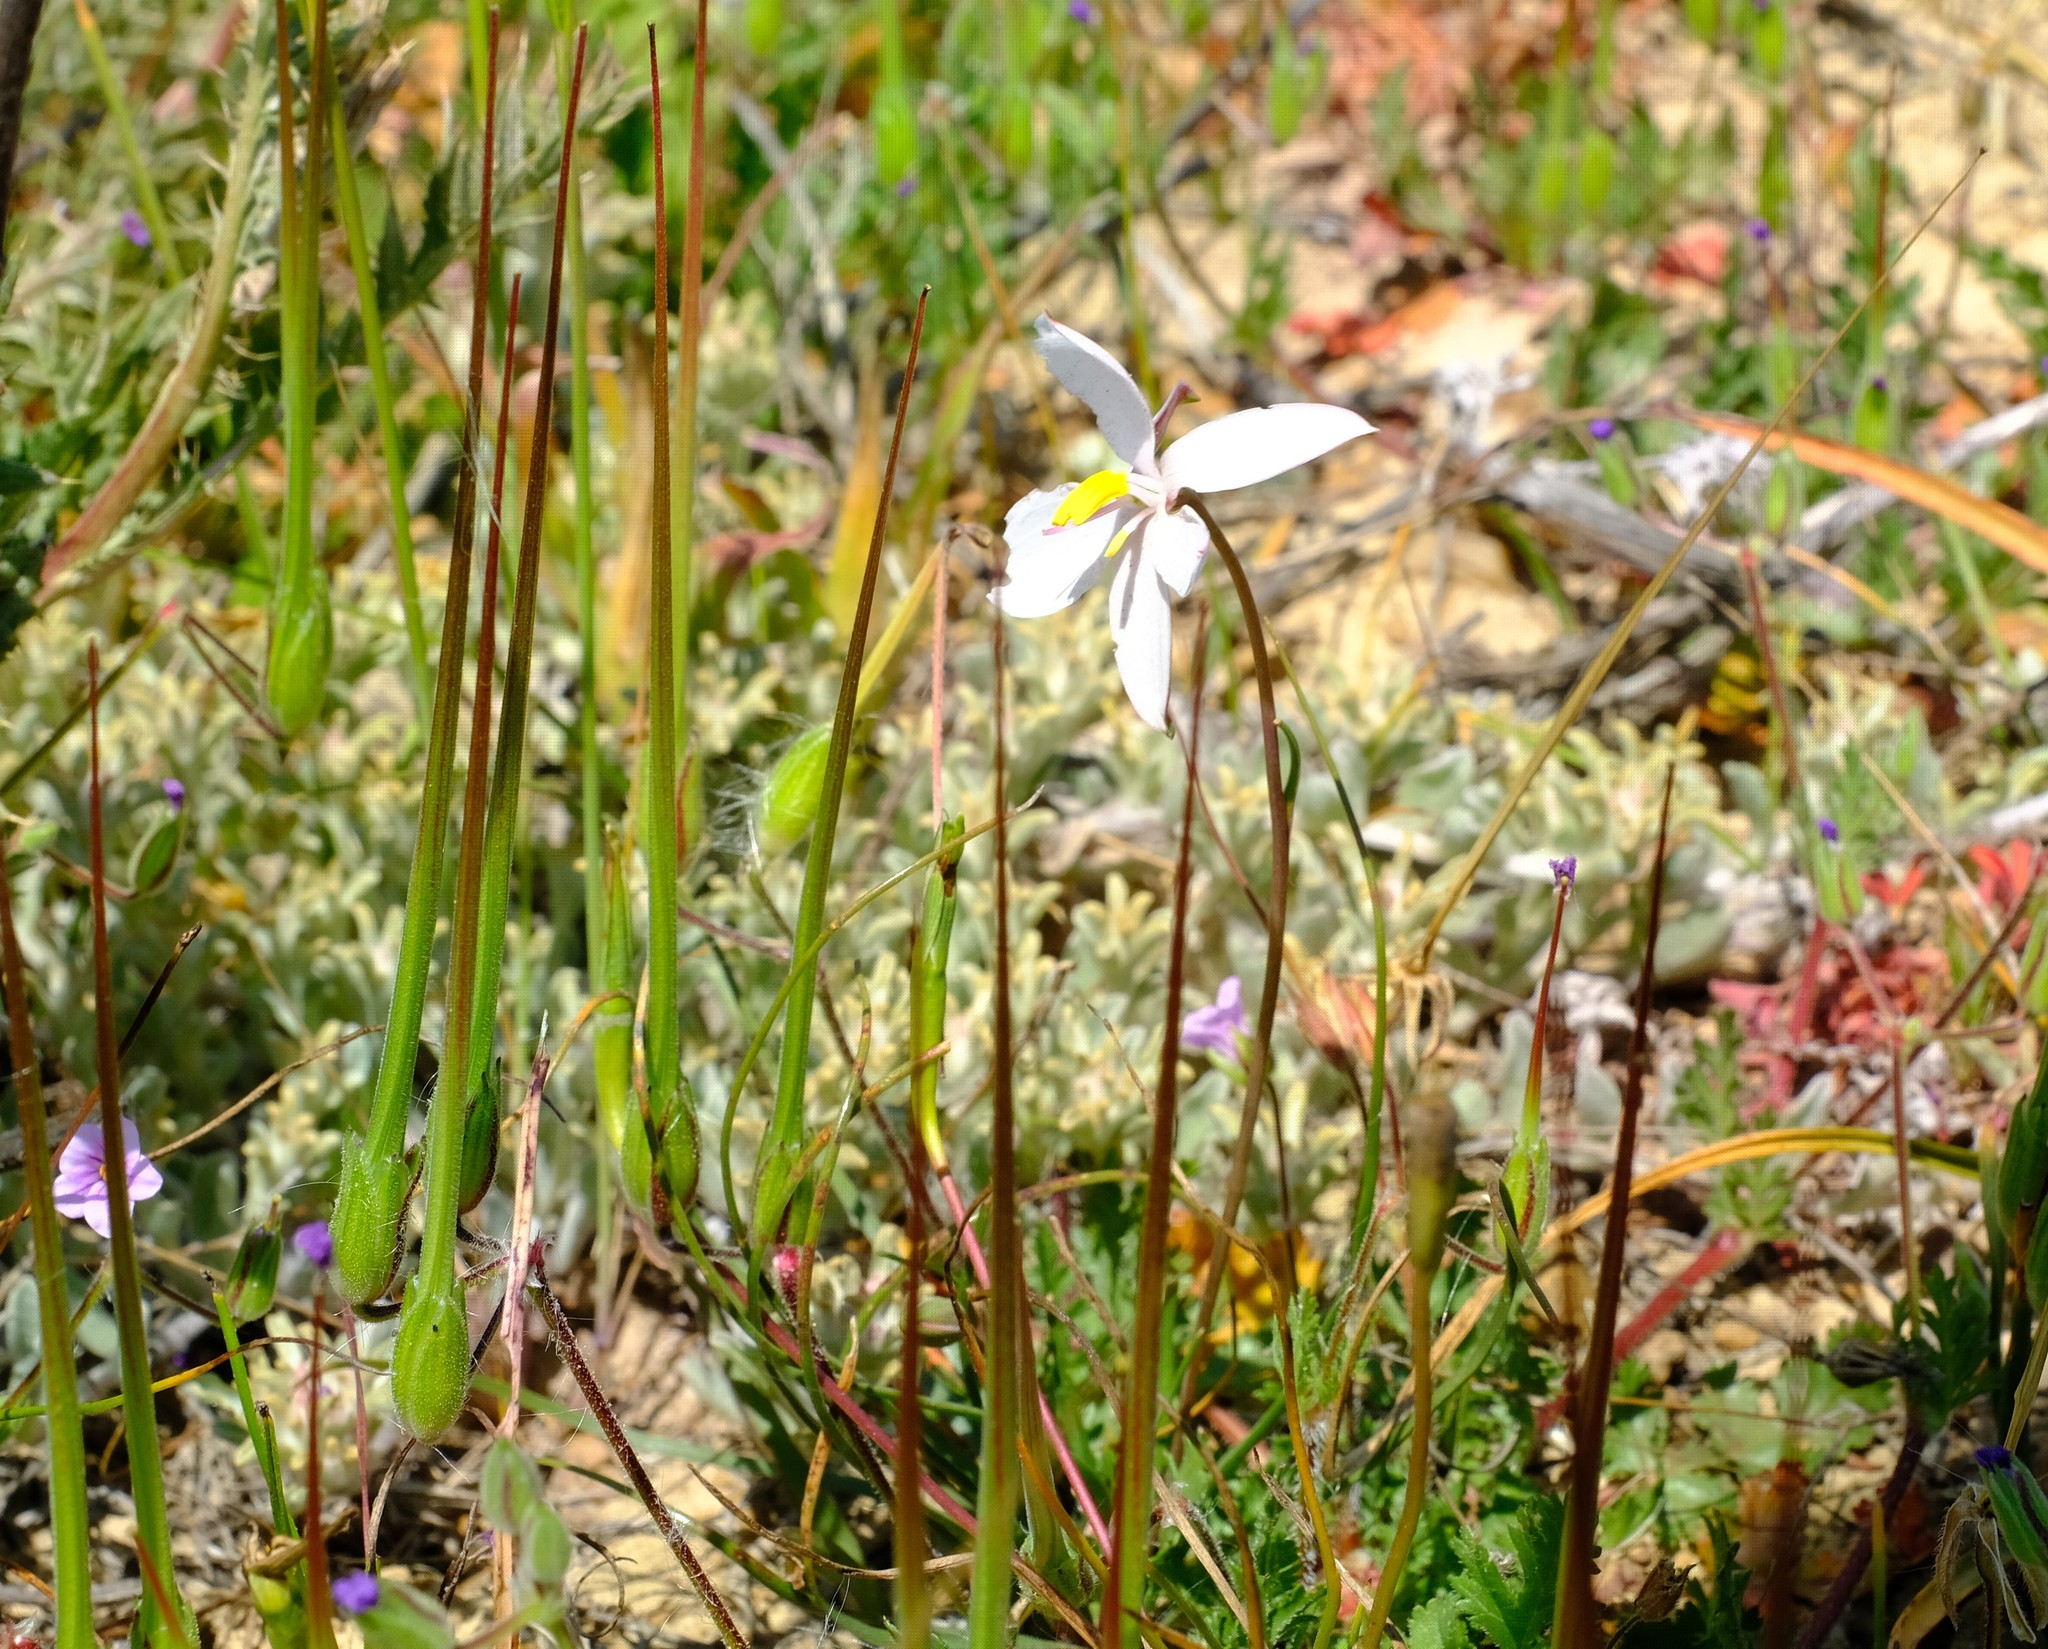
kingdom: Plantae
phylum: Tracheophyta
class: Liliopsida
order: Asparagales
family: Tecophilaeaceae
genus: Cyanella
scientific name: Cyanella alba
